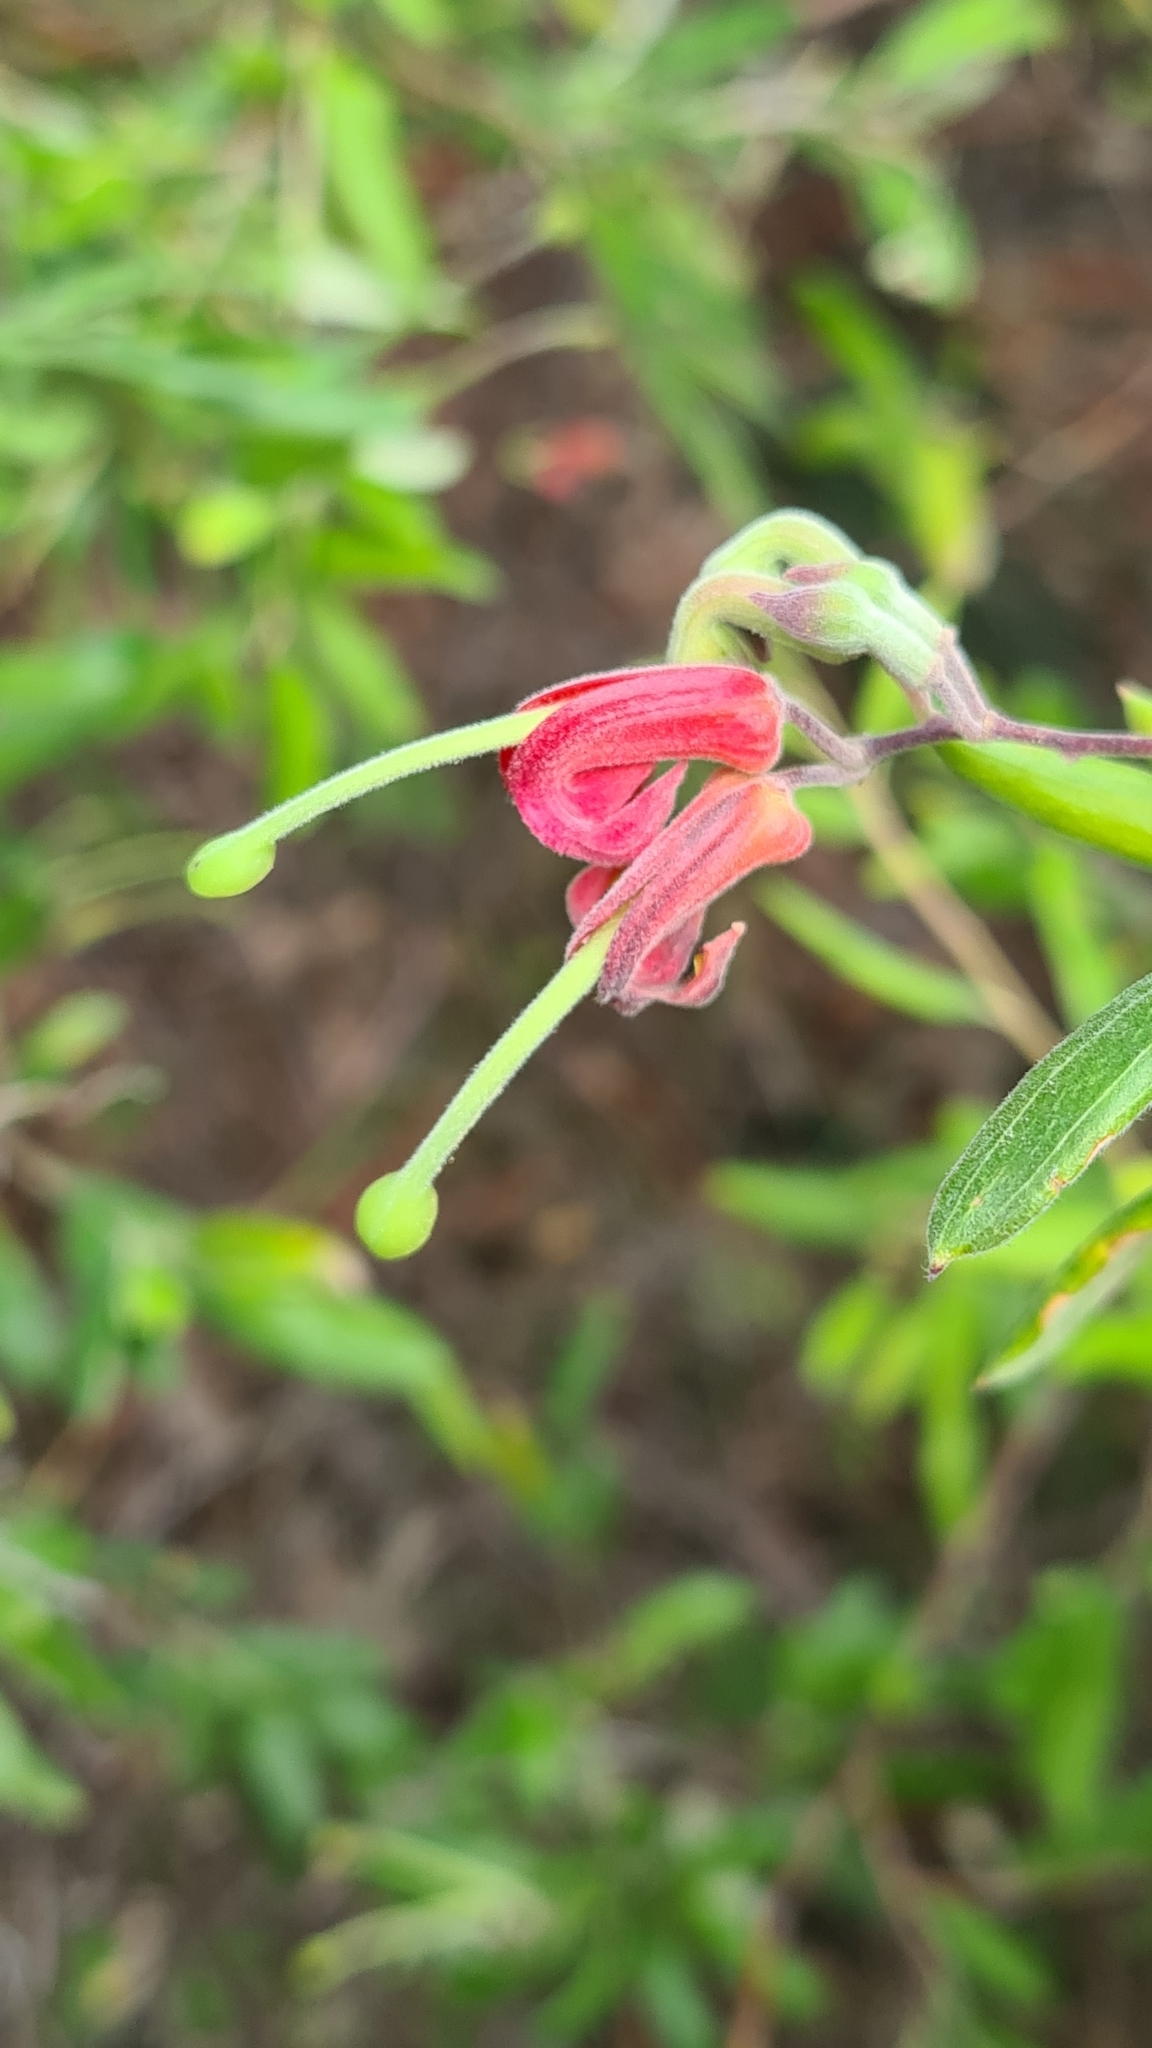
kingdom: Plantae
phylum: Tracheophyta
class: Magnoliopsida
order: Proteales
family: Proteaceae
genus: Grevillea
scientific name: Grevillea arenaria
